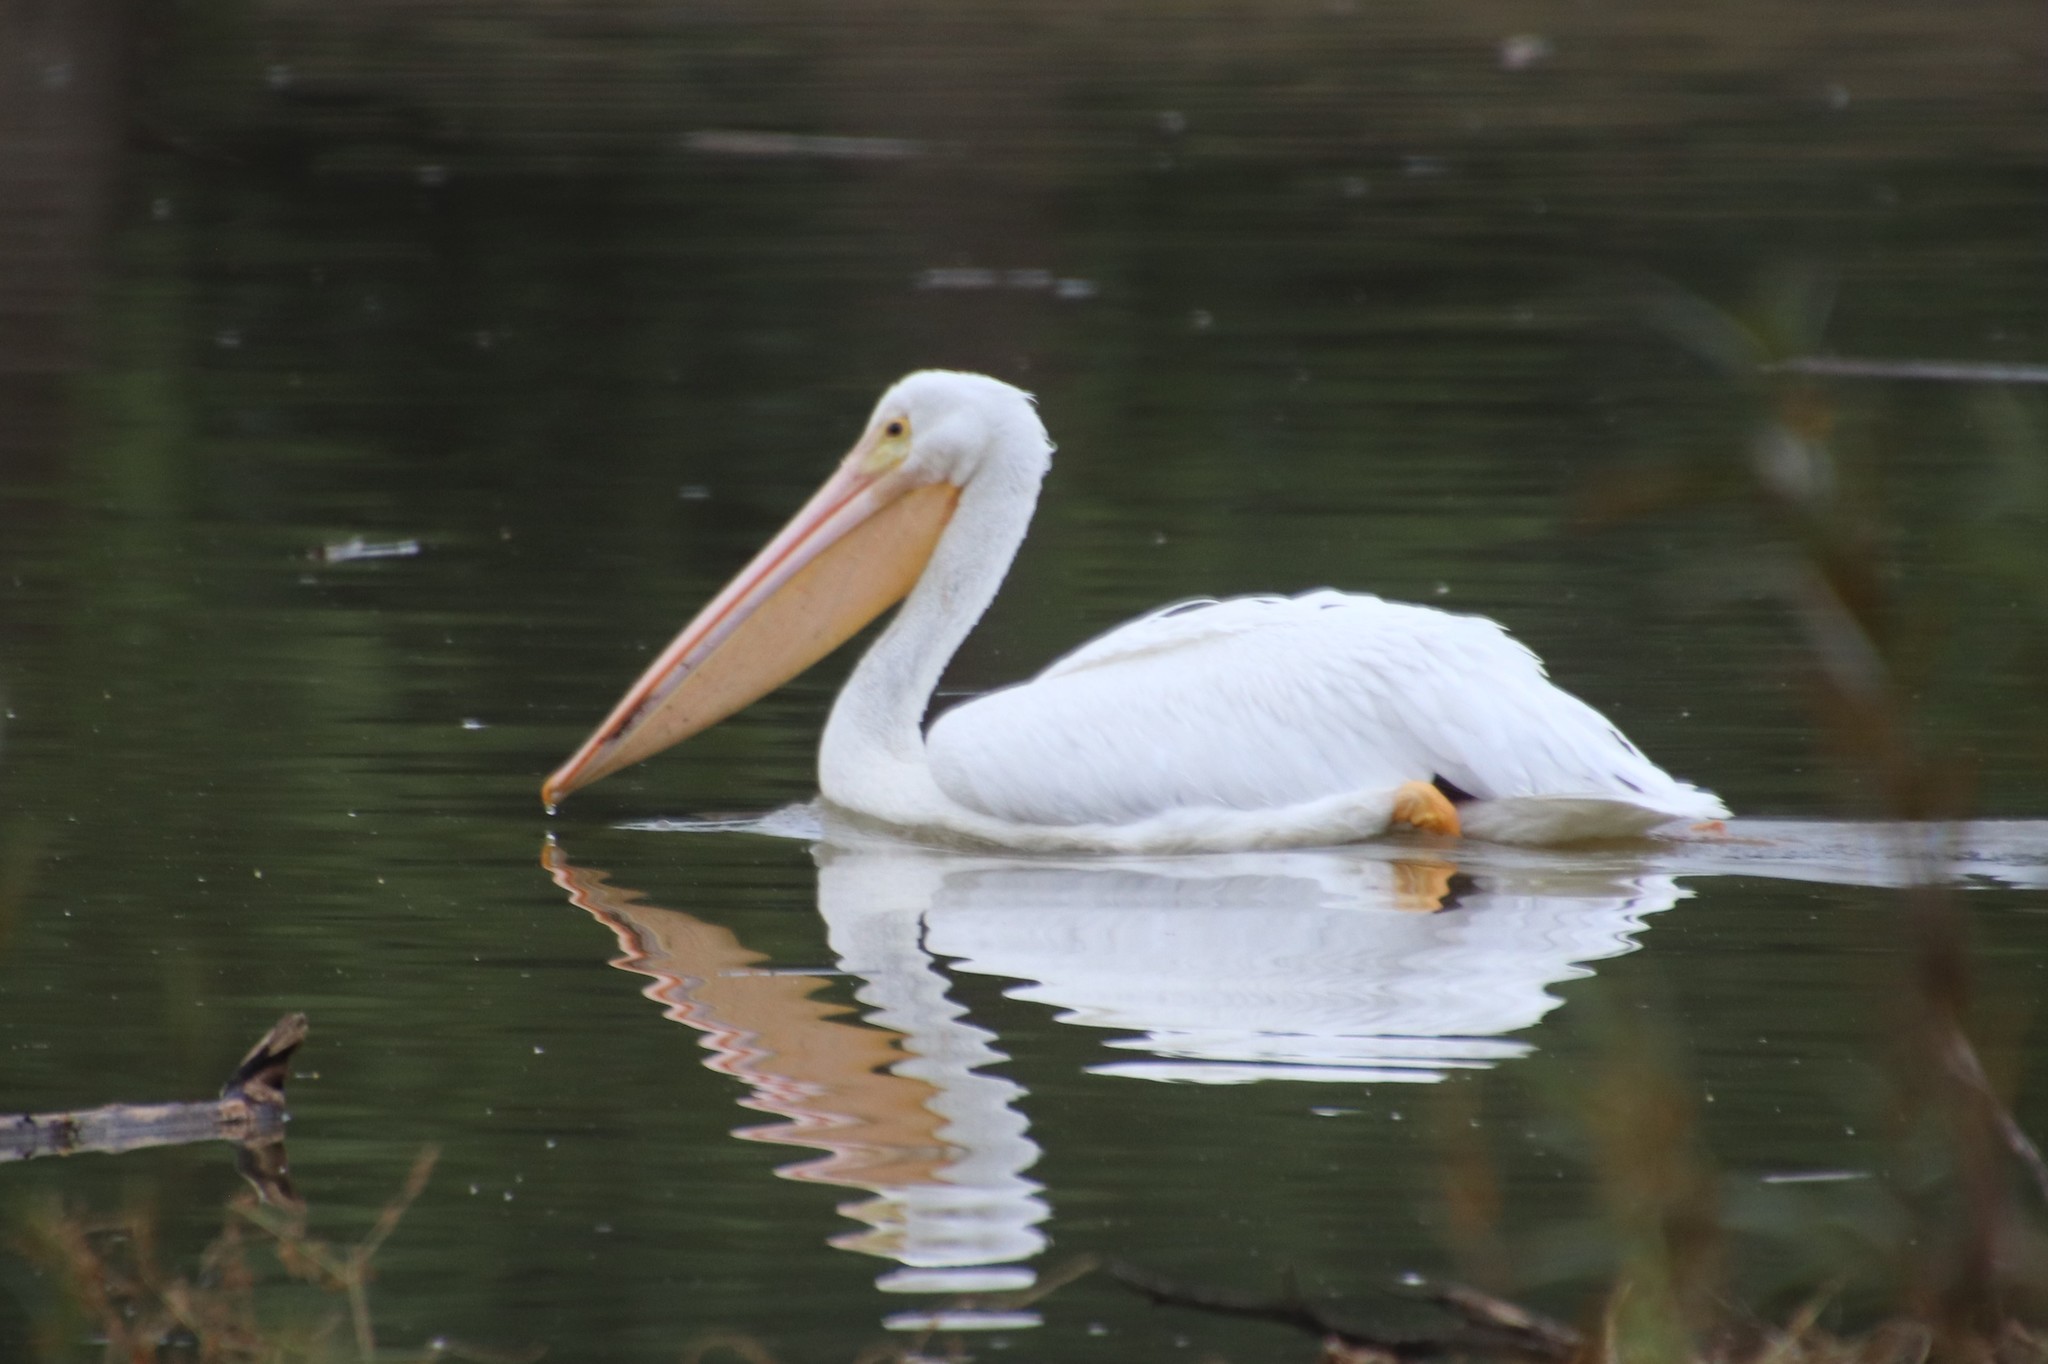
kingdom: Animalia
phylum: Chordata
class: Aves
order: Pelecaniformes
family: Pelecanidae
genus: Pelecanus
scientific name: Pelecanus erythrorhynchos
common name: American white pelican
